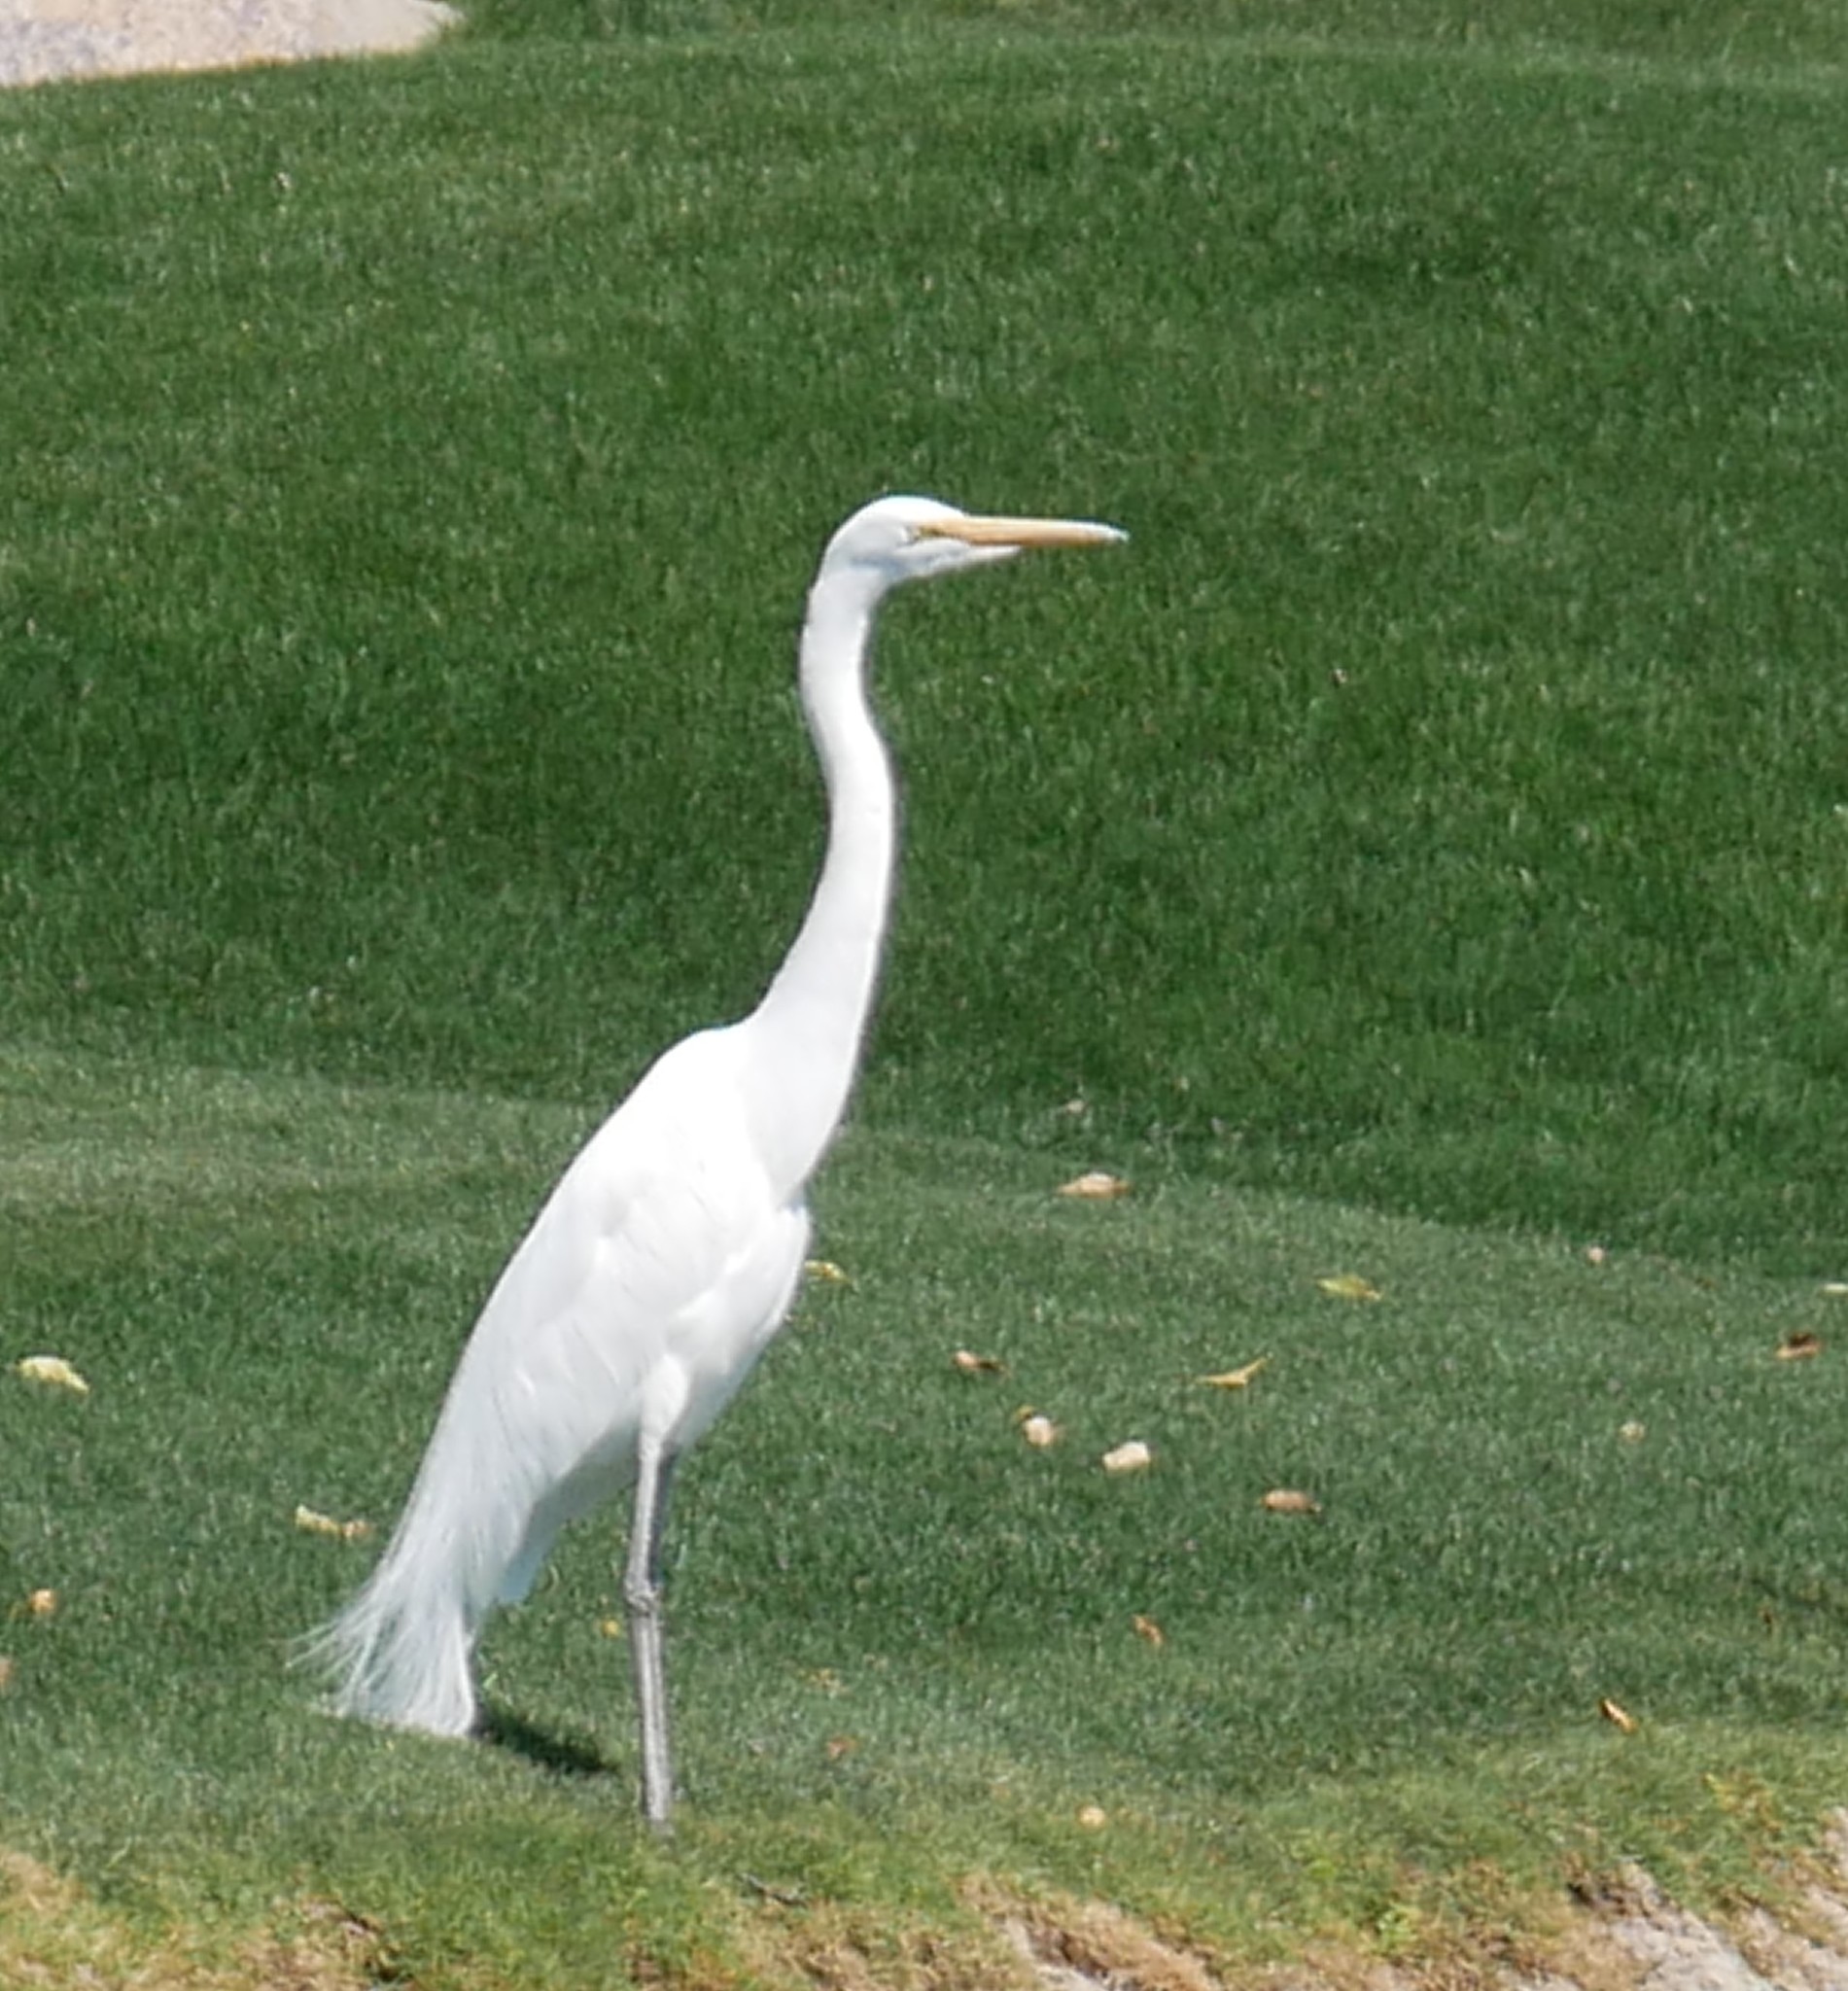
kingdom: Animalia
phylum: Chordata
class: Aves
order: Pelecaniformes
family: Ardeidae
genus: Ardea
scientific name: Ardea alba
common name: Great egret
